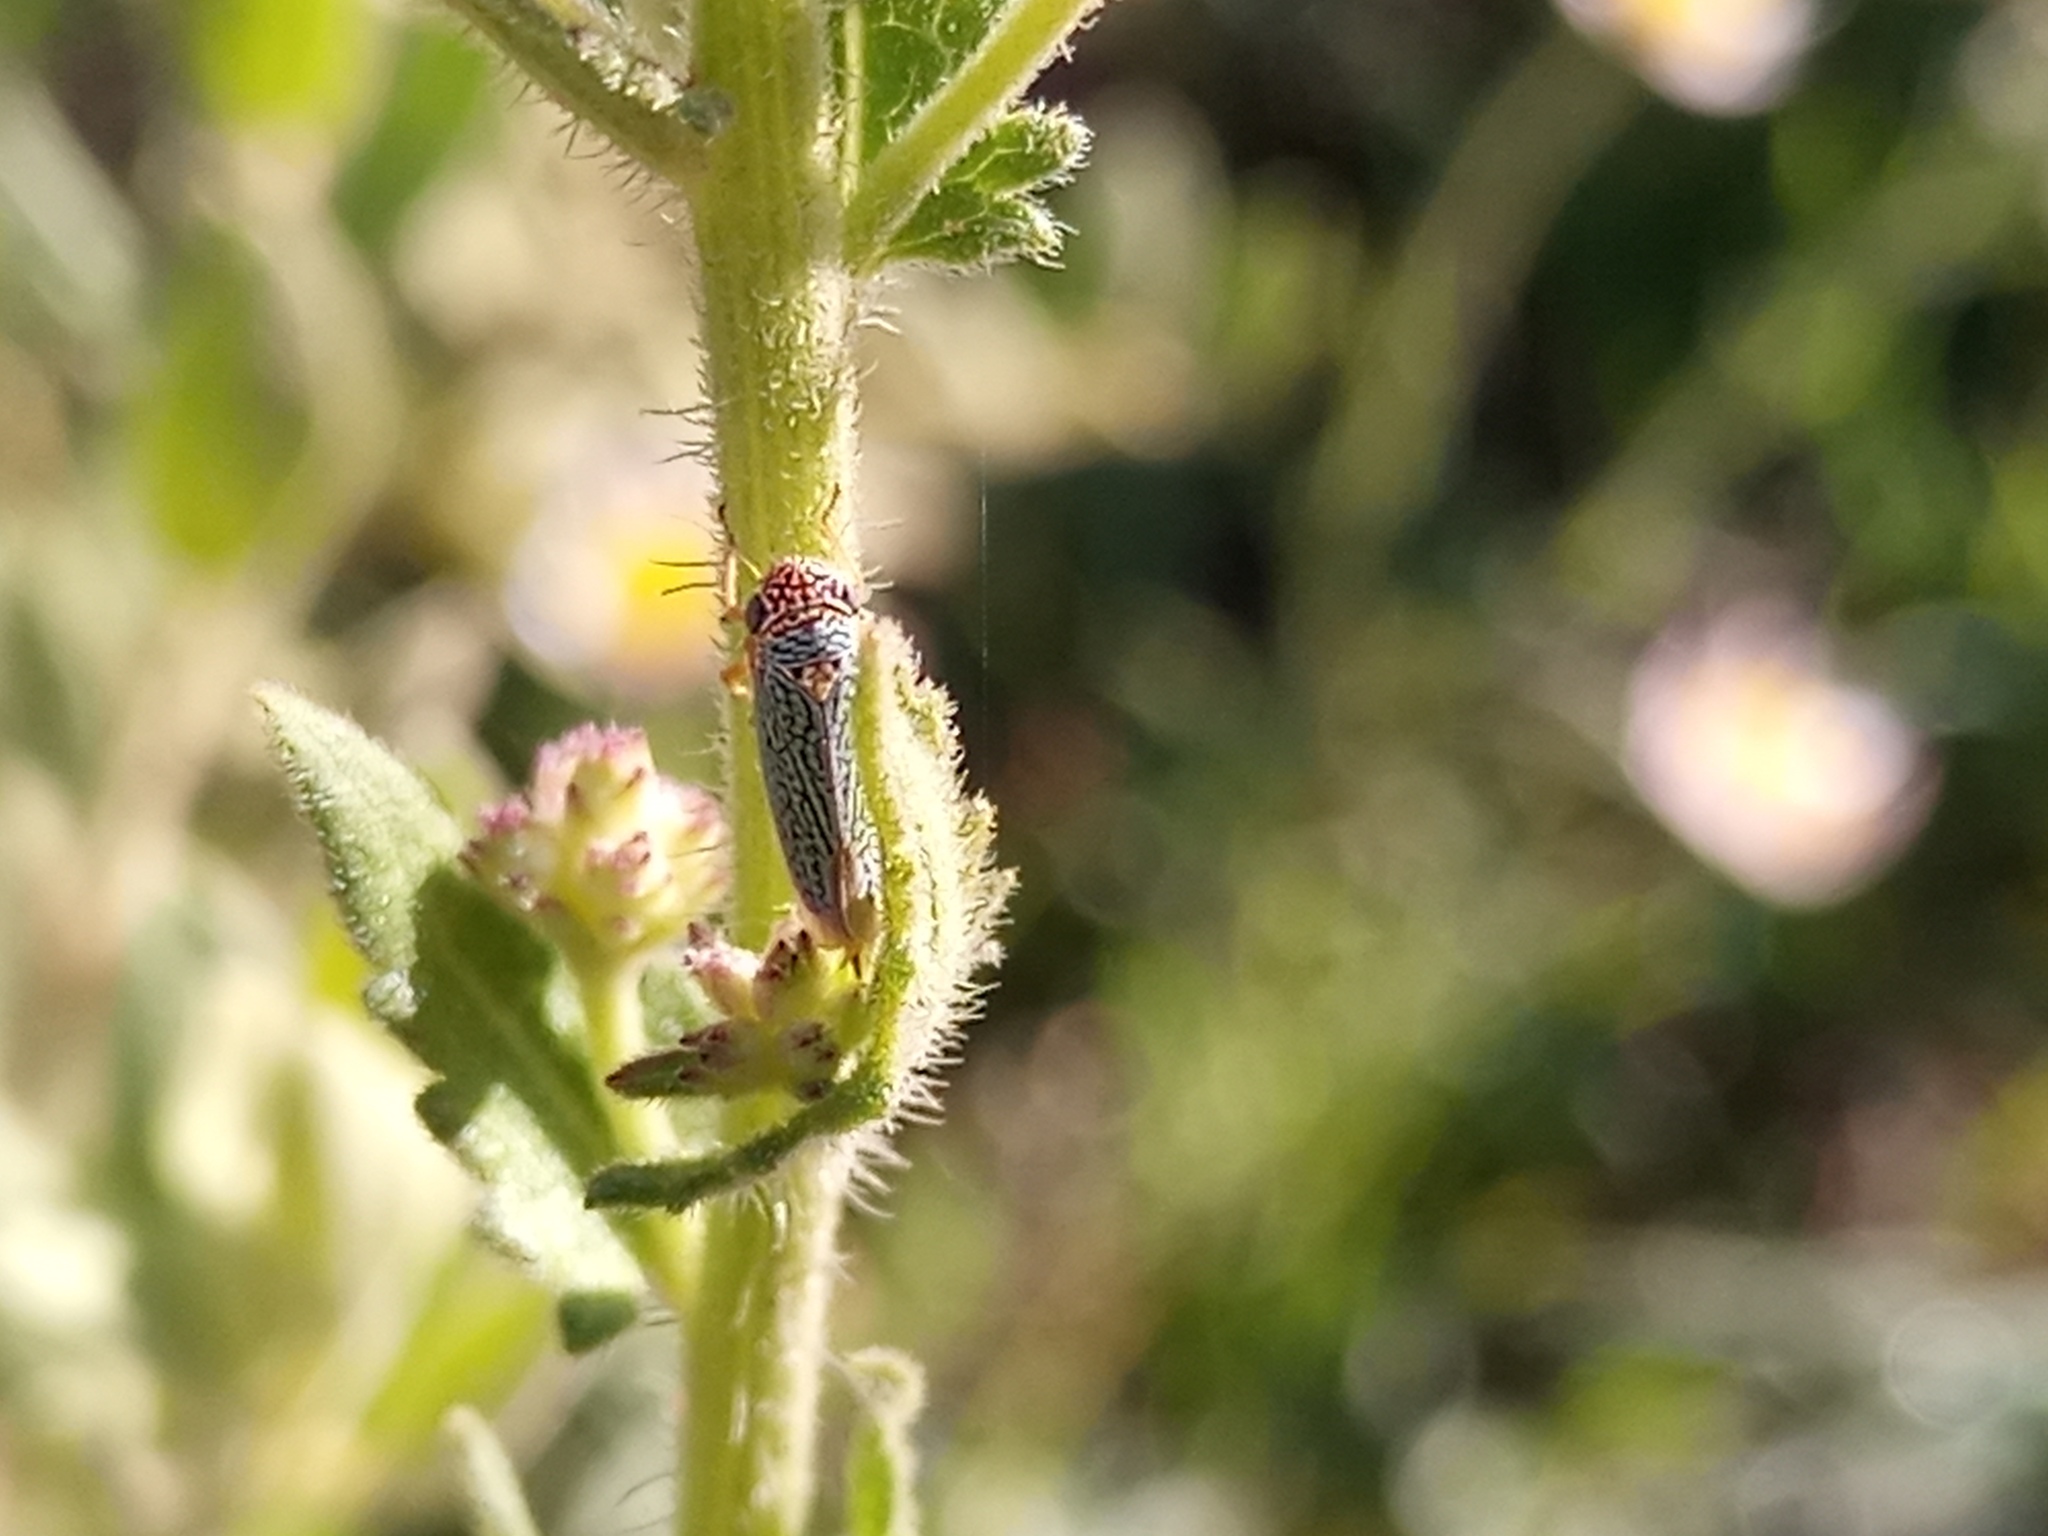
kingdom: Animalia
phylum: Arthropoda
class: Insecta
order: Hemiptera
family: Cicadellidae
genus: Molomea
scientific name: Molomea lineiceps
